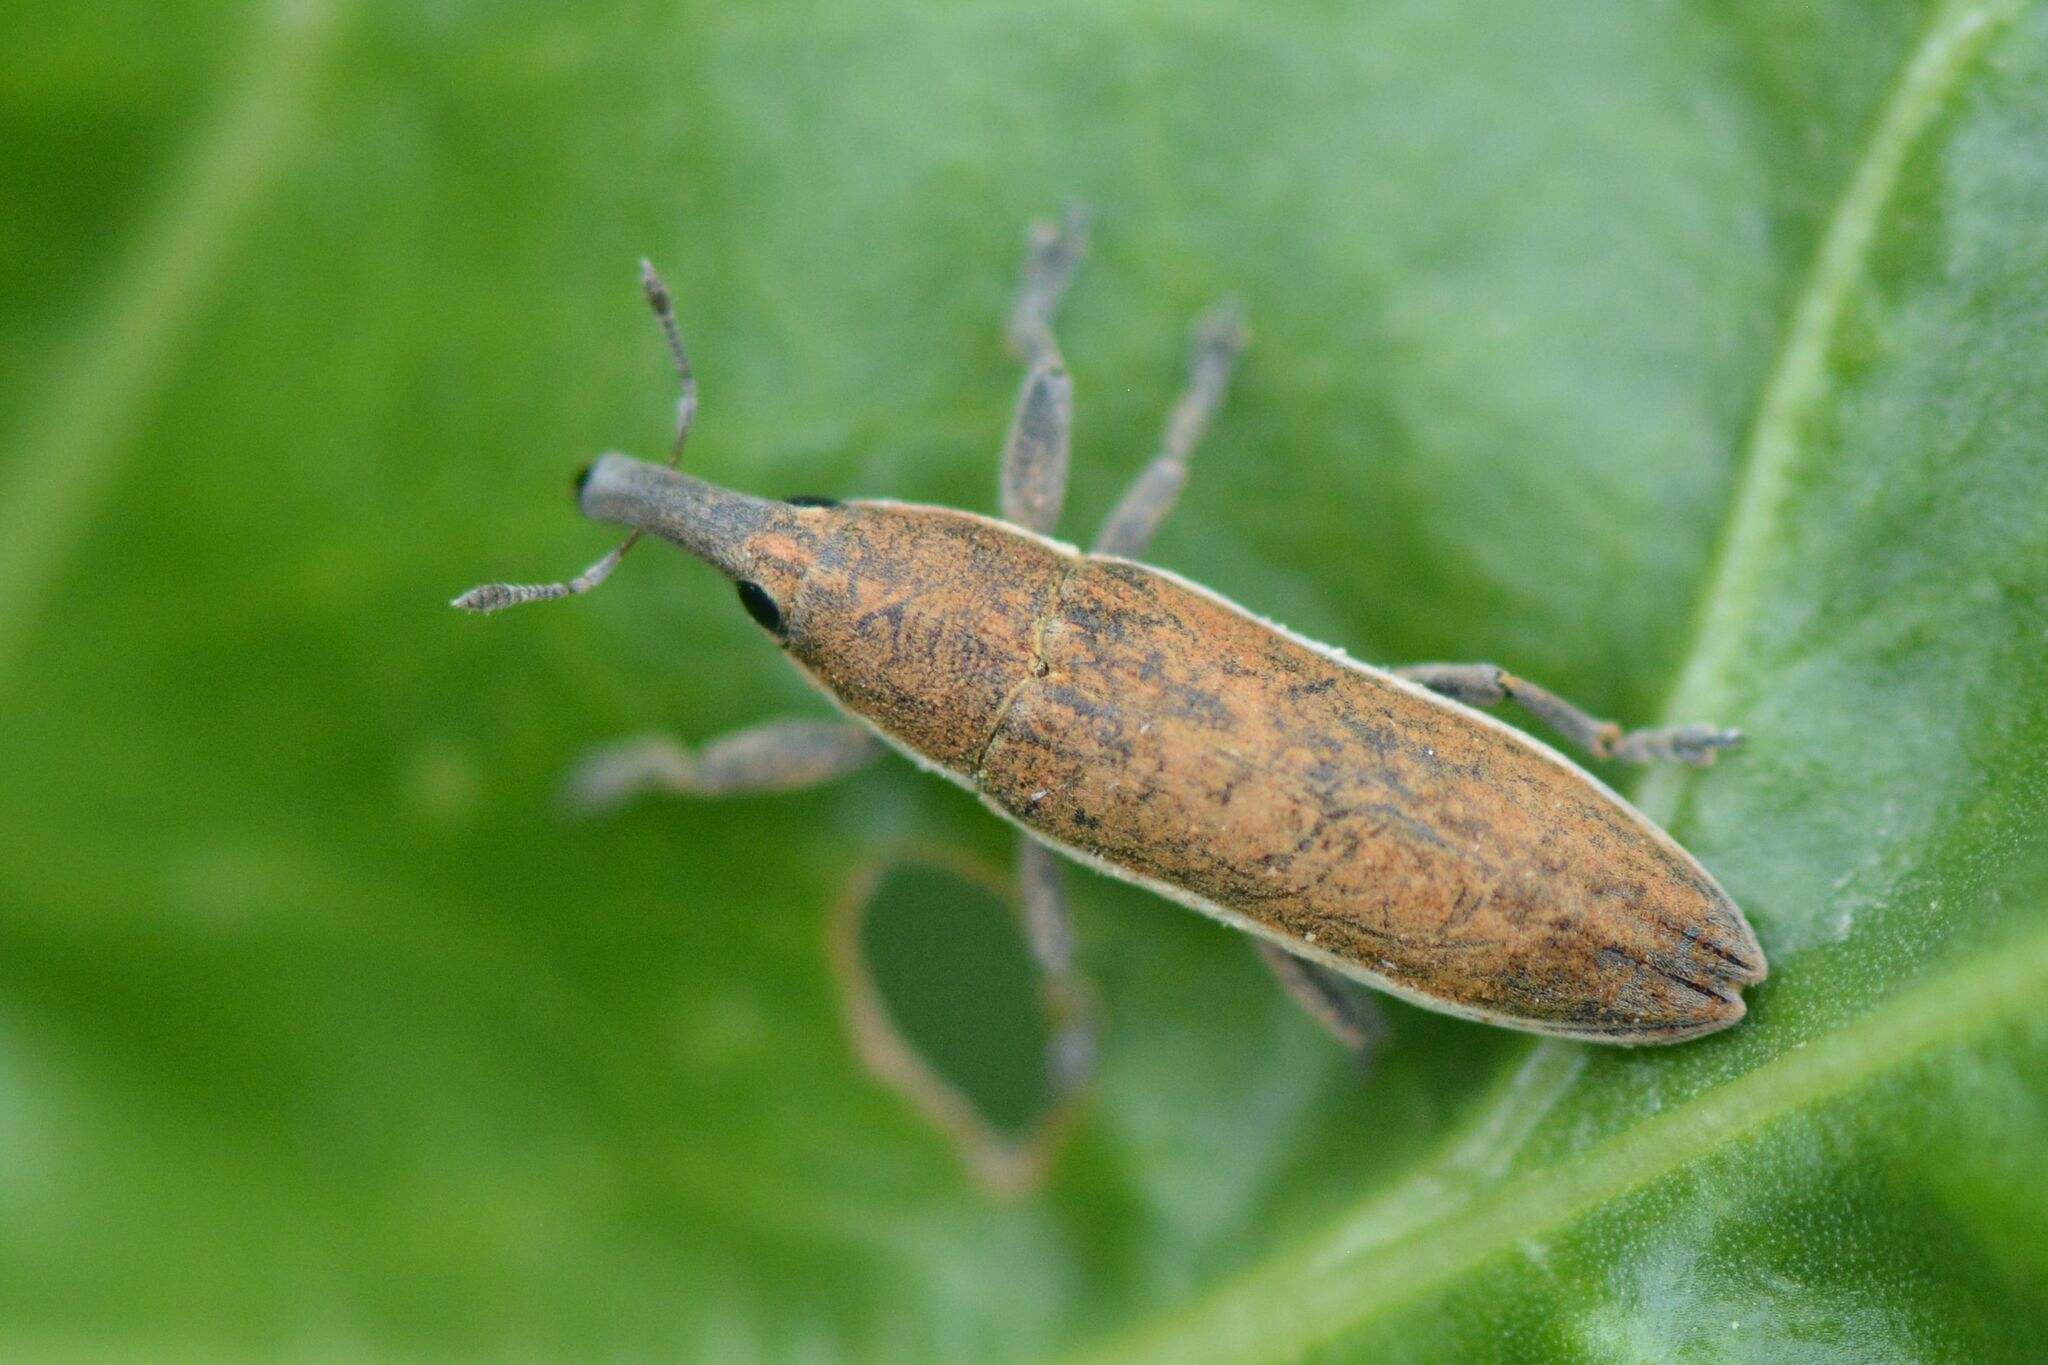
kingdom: Animalia
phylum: Arthropoda
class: Insecta
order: Coleoptera
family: Curculionidae
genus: Lixus
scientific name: Lixus juncii
